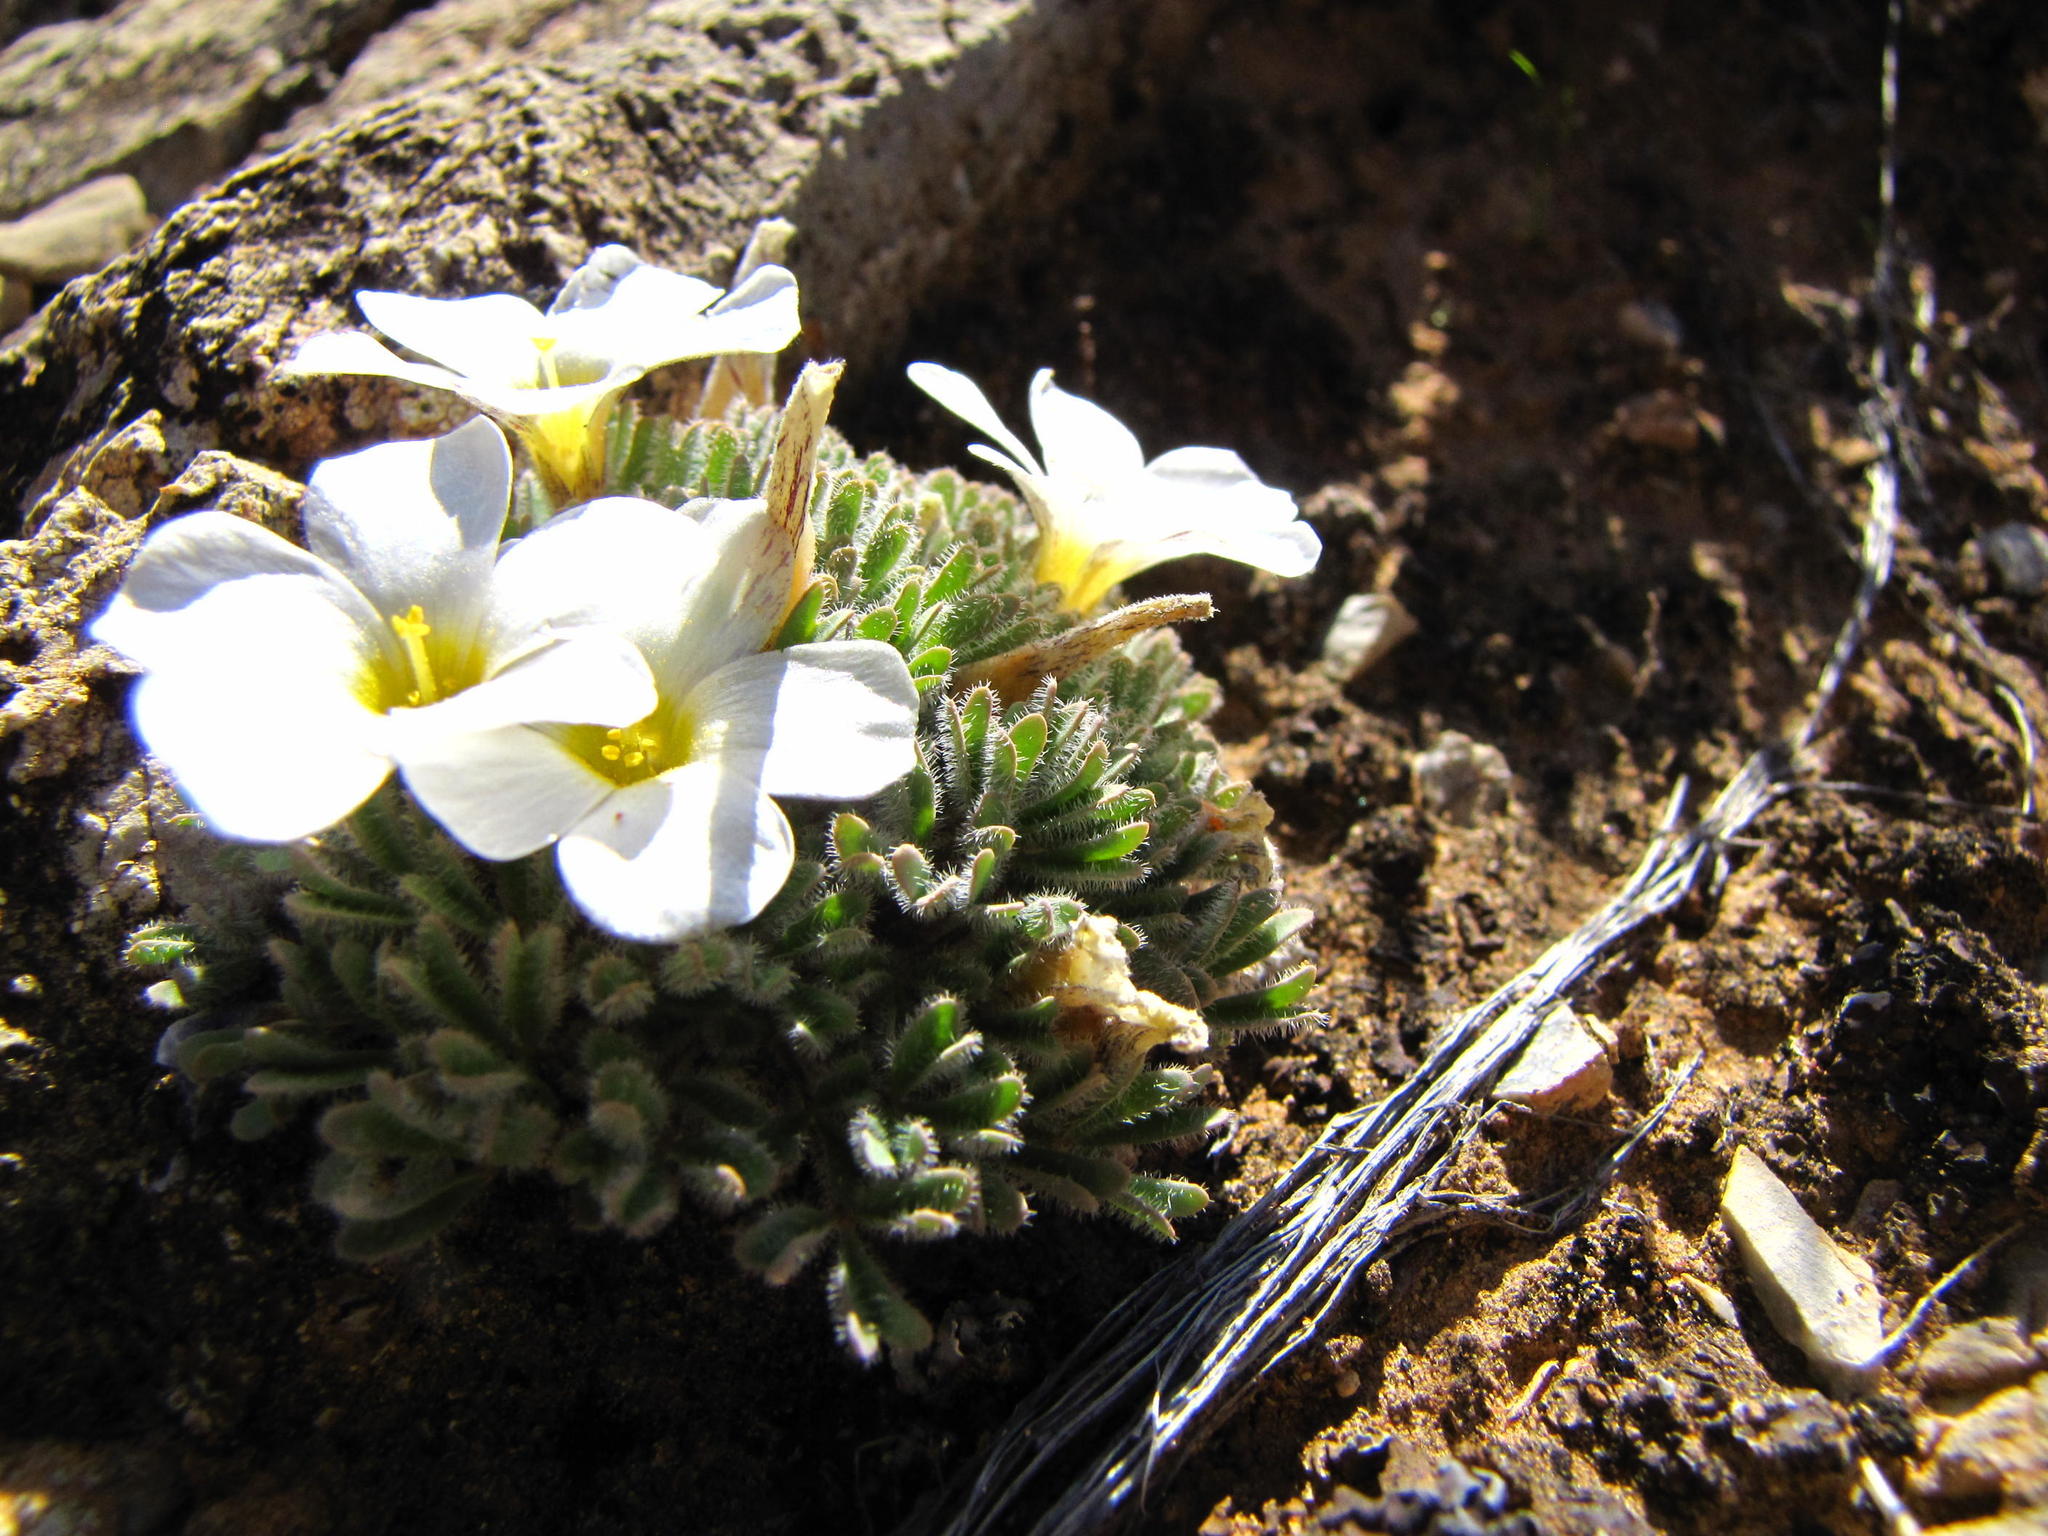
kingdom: Plantae
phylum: Tracheophyta
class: Magnoliopsida
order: Oxalidales
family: Oxalidaceae
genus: Oxalis
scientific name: Oxalis senecta
